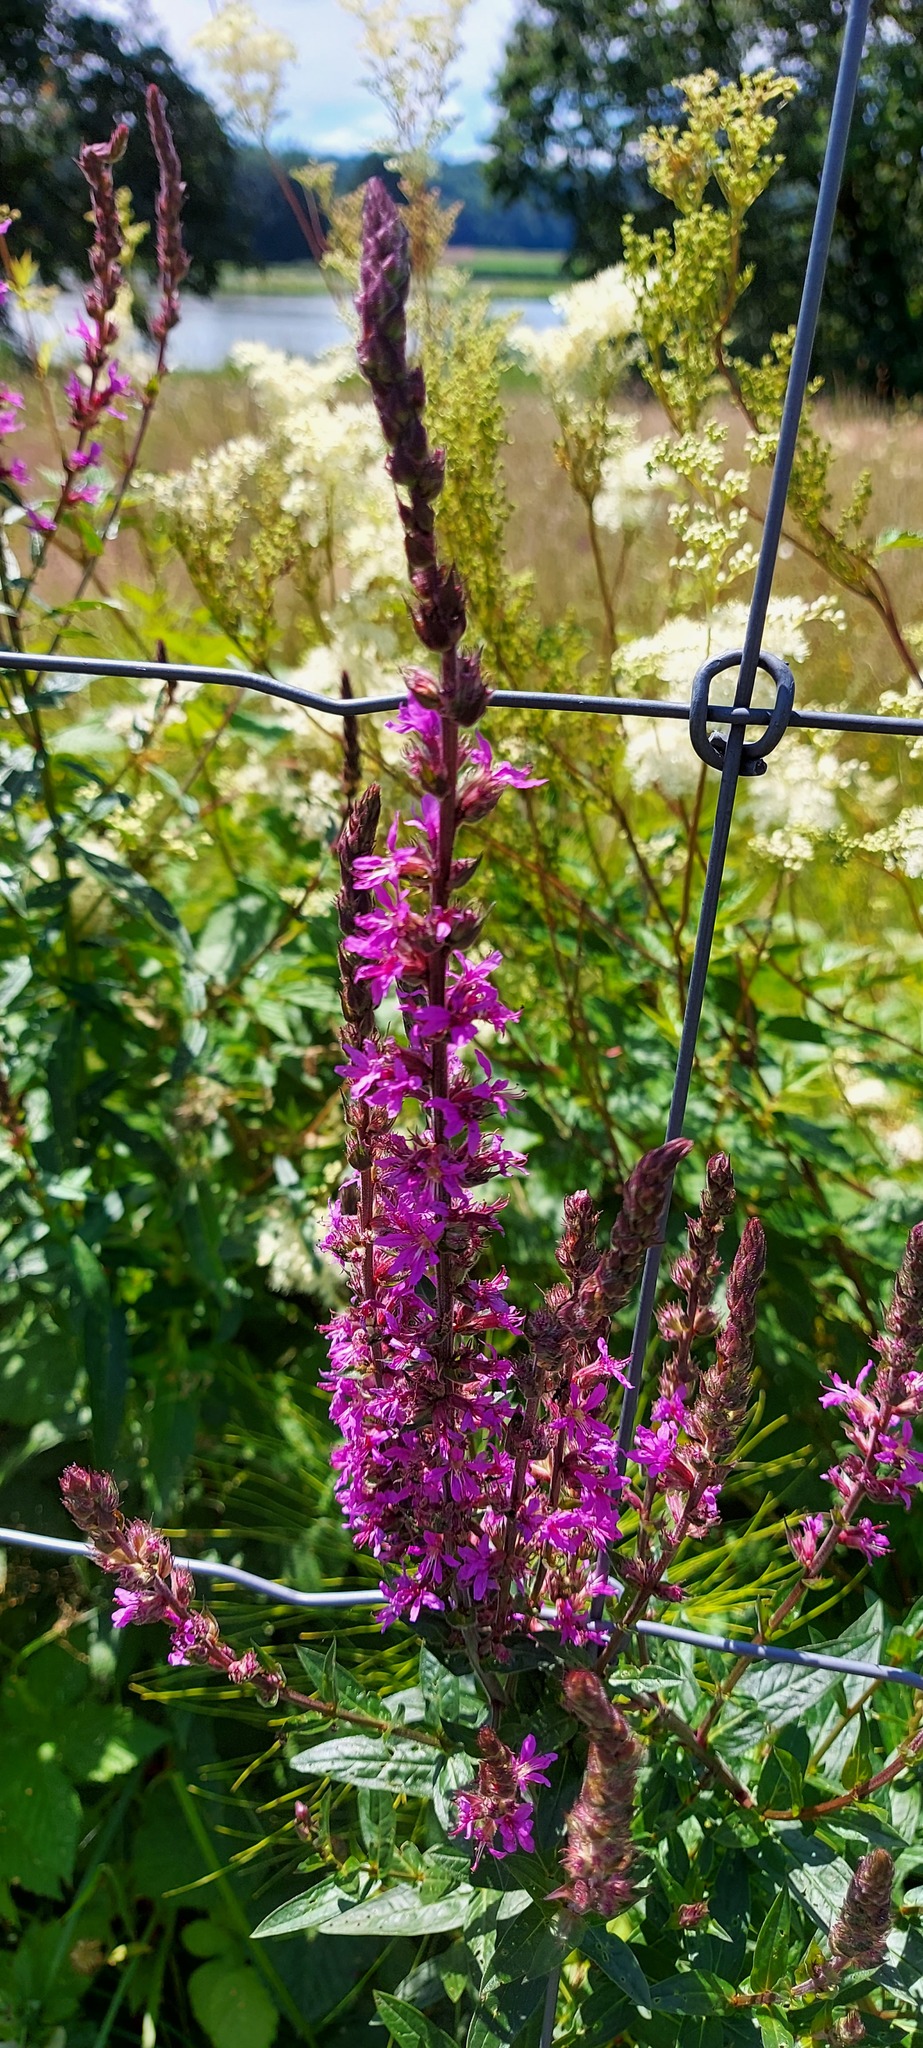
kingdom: Plantae
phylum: Tracheophyta
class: Magnoliopsida
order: Myrtales
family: Lythraceae
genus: Lythrum
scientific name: Lythrum salicaria
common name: Purple loosestrife
